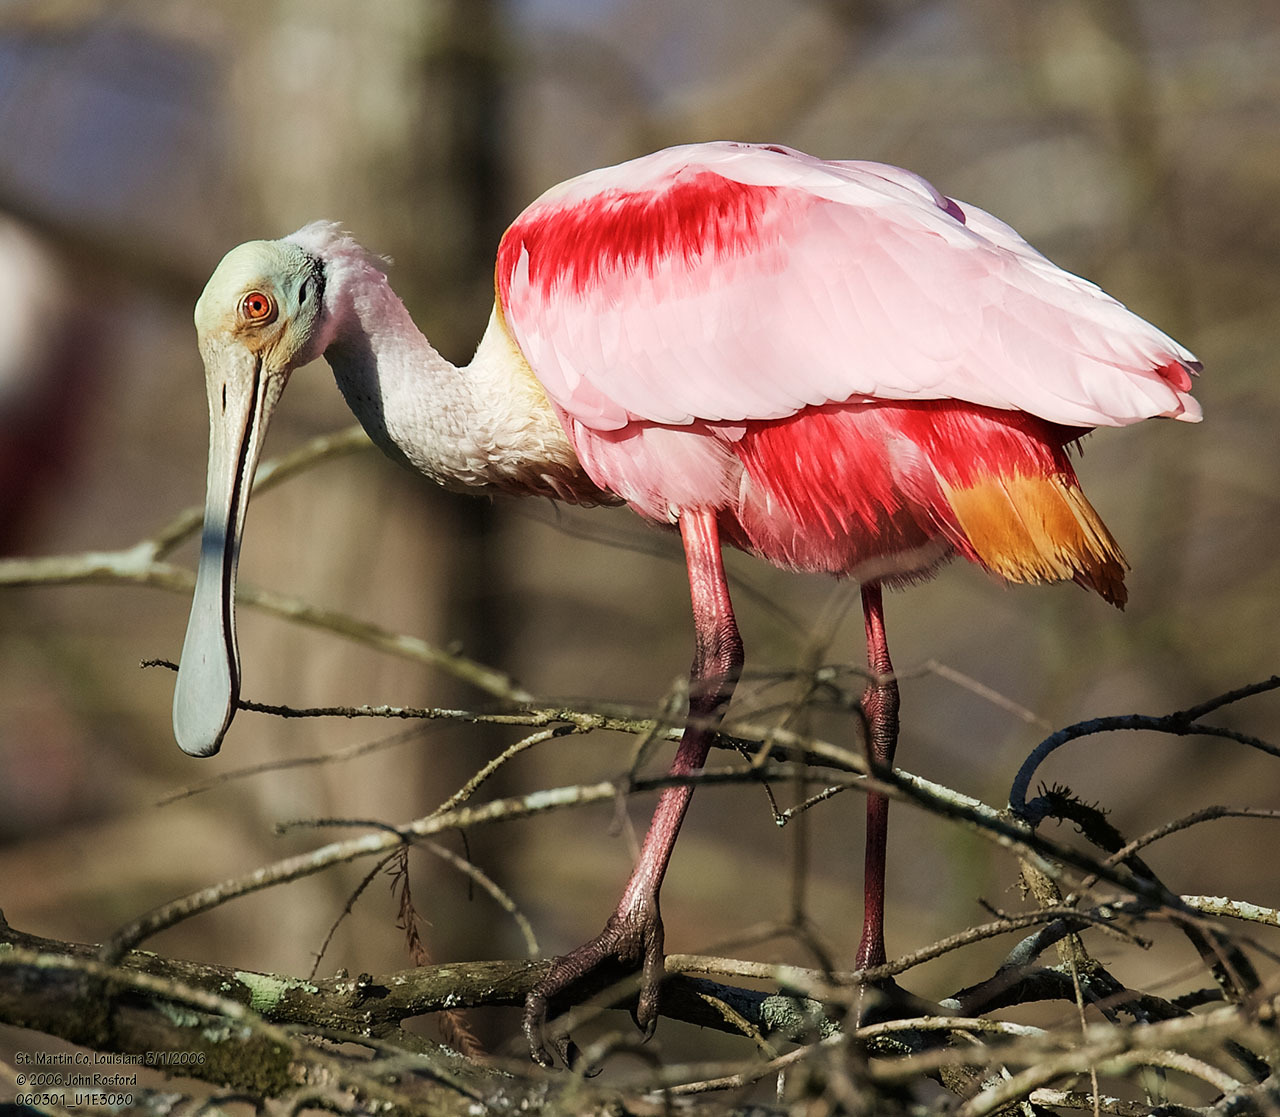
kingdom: Animalia
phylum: Chordata
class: Aves
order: Pelecaniformes
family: Threskiornithidae
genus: Platalea
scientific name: Platalea ajaja
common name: Roseate spoonbill
